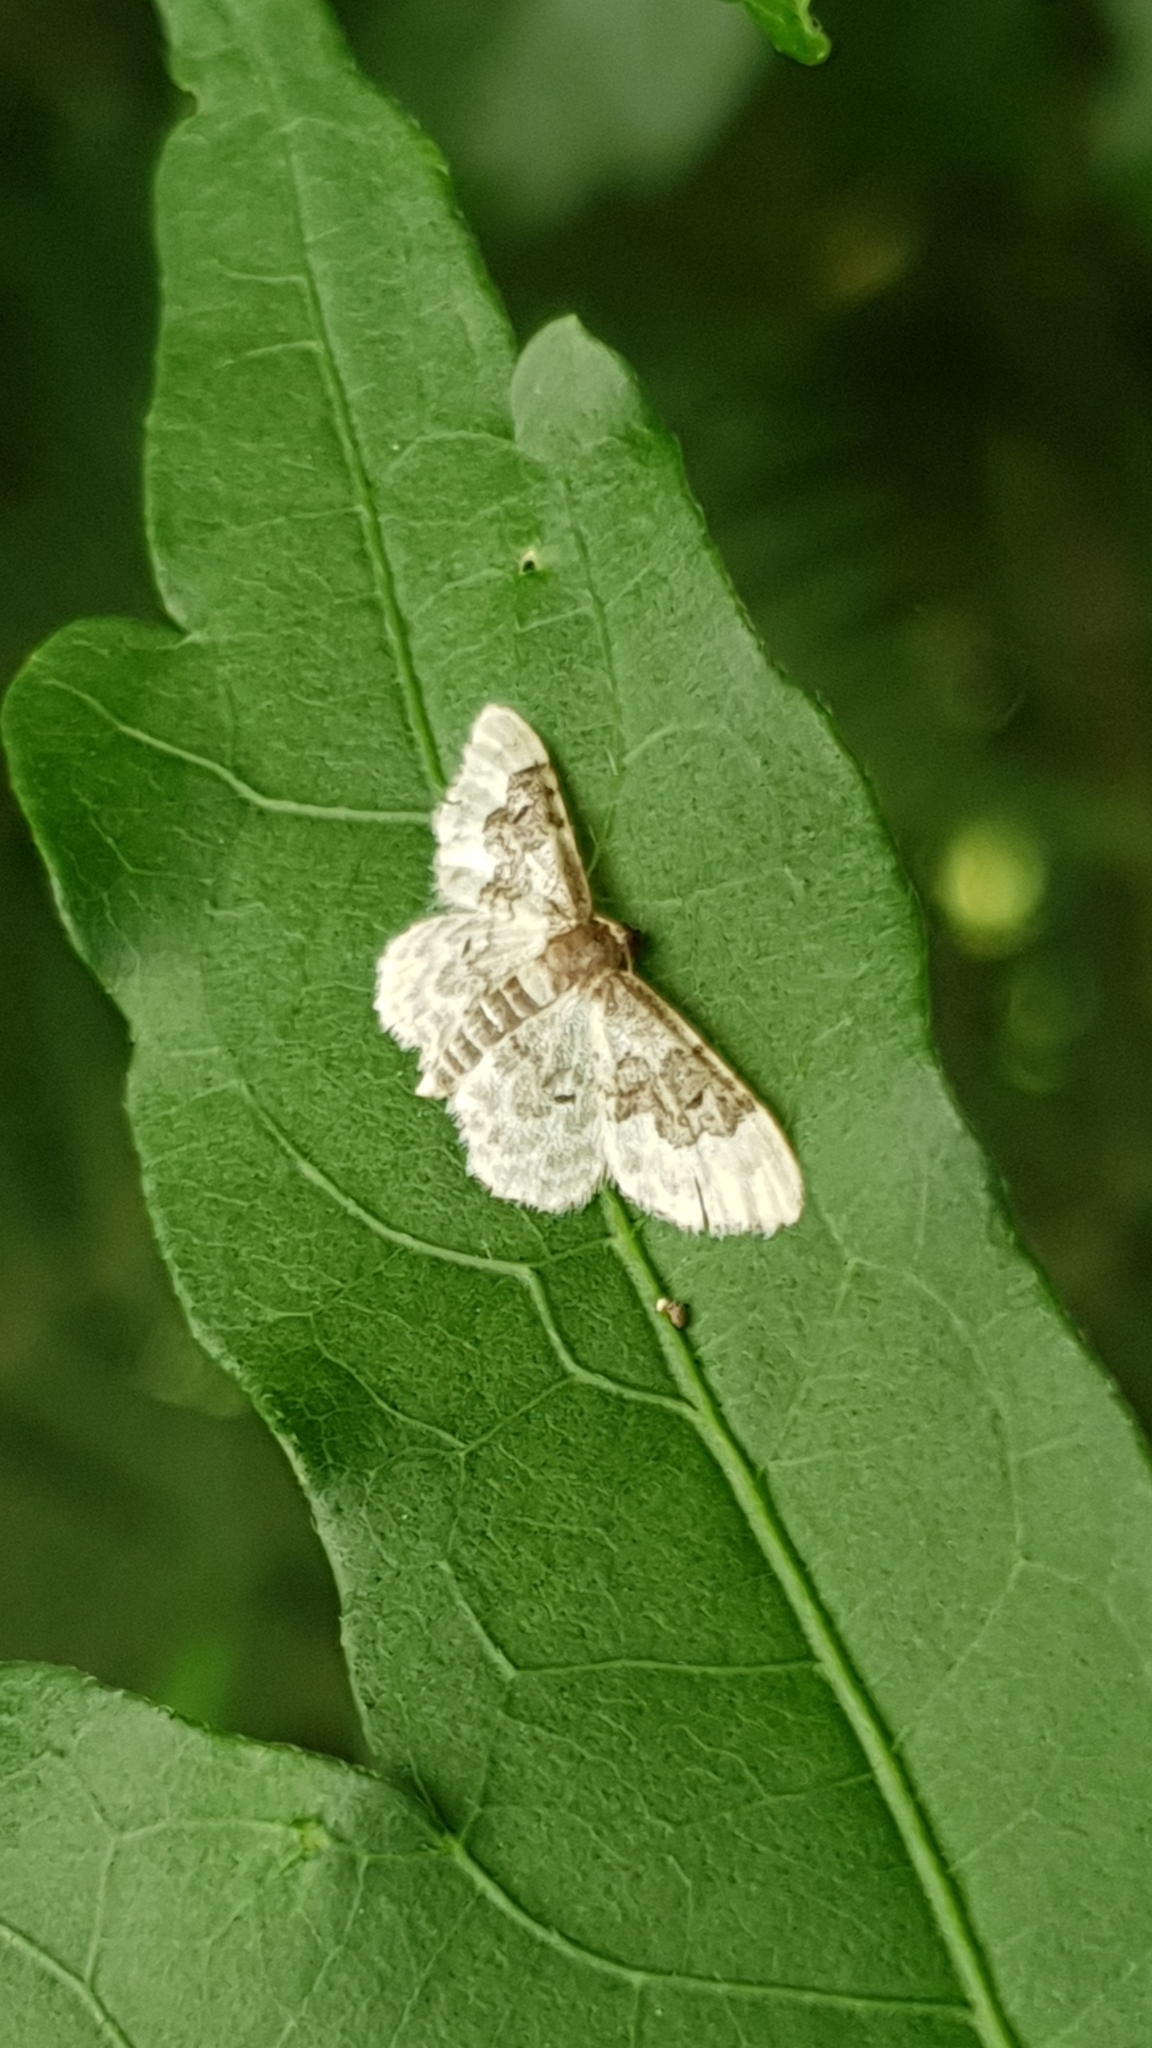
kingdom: Animalia
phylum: Arthropoda
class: Insecta
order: Lepidoptera
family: Geometridae
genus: Idaea
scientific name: Idaea rusticata
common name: Least carpet
